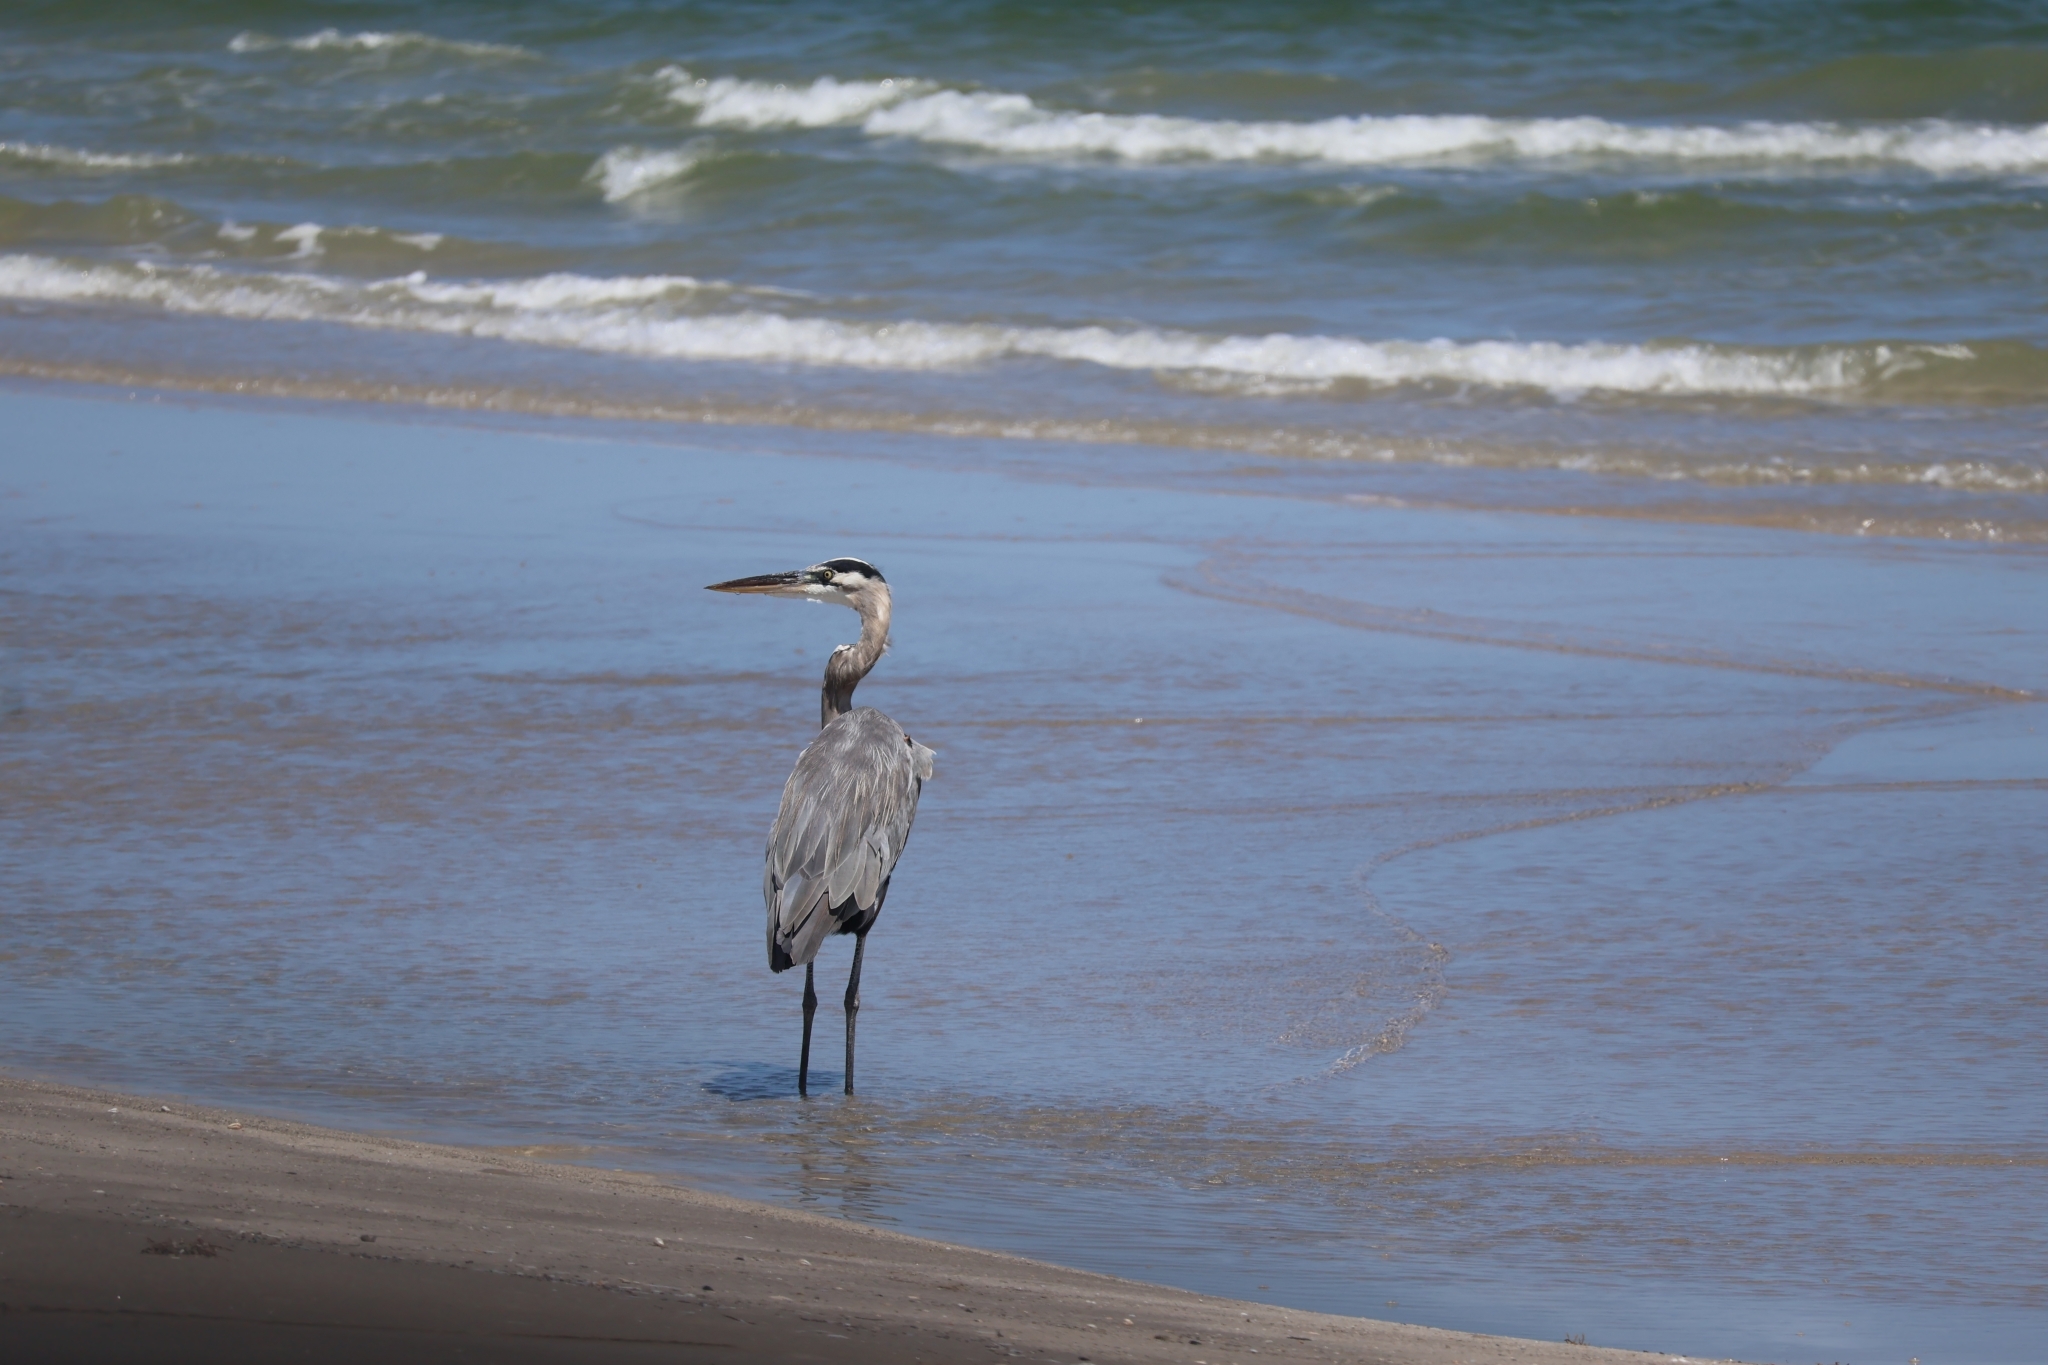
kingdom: Animalia
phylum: Chordata
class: Aves
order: Pelecaniformes
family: Ardeidae
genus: Ardea
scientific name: Ardea herodias
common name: Great blue heron
